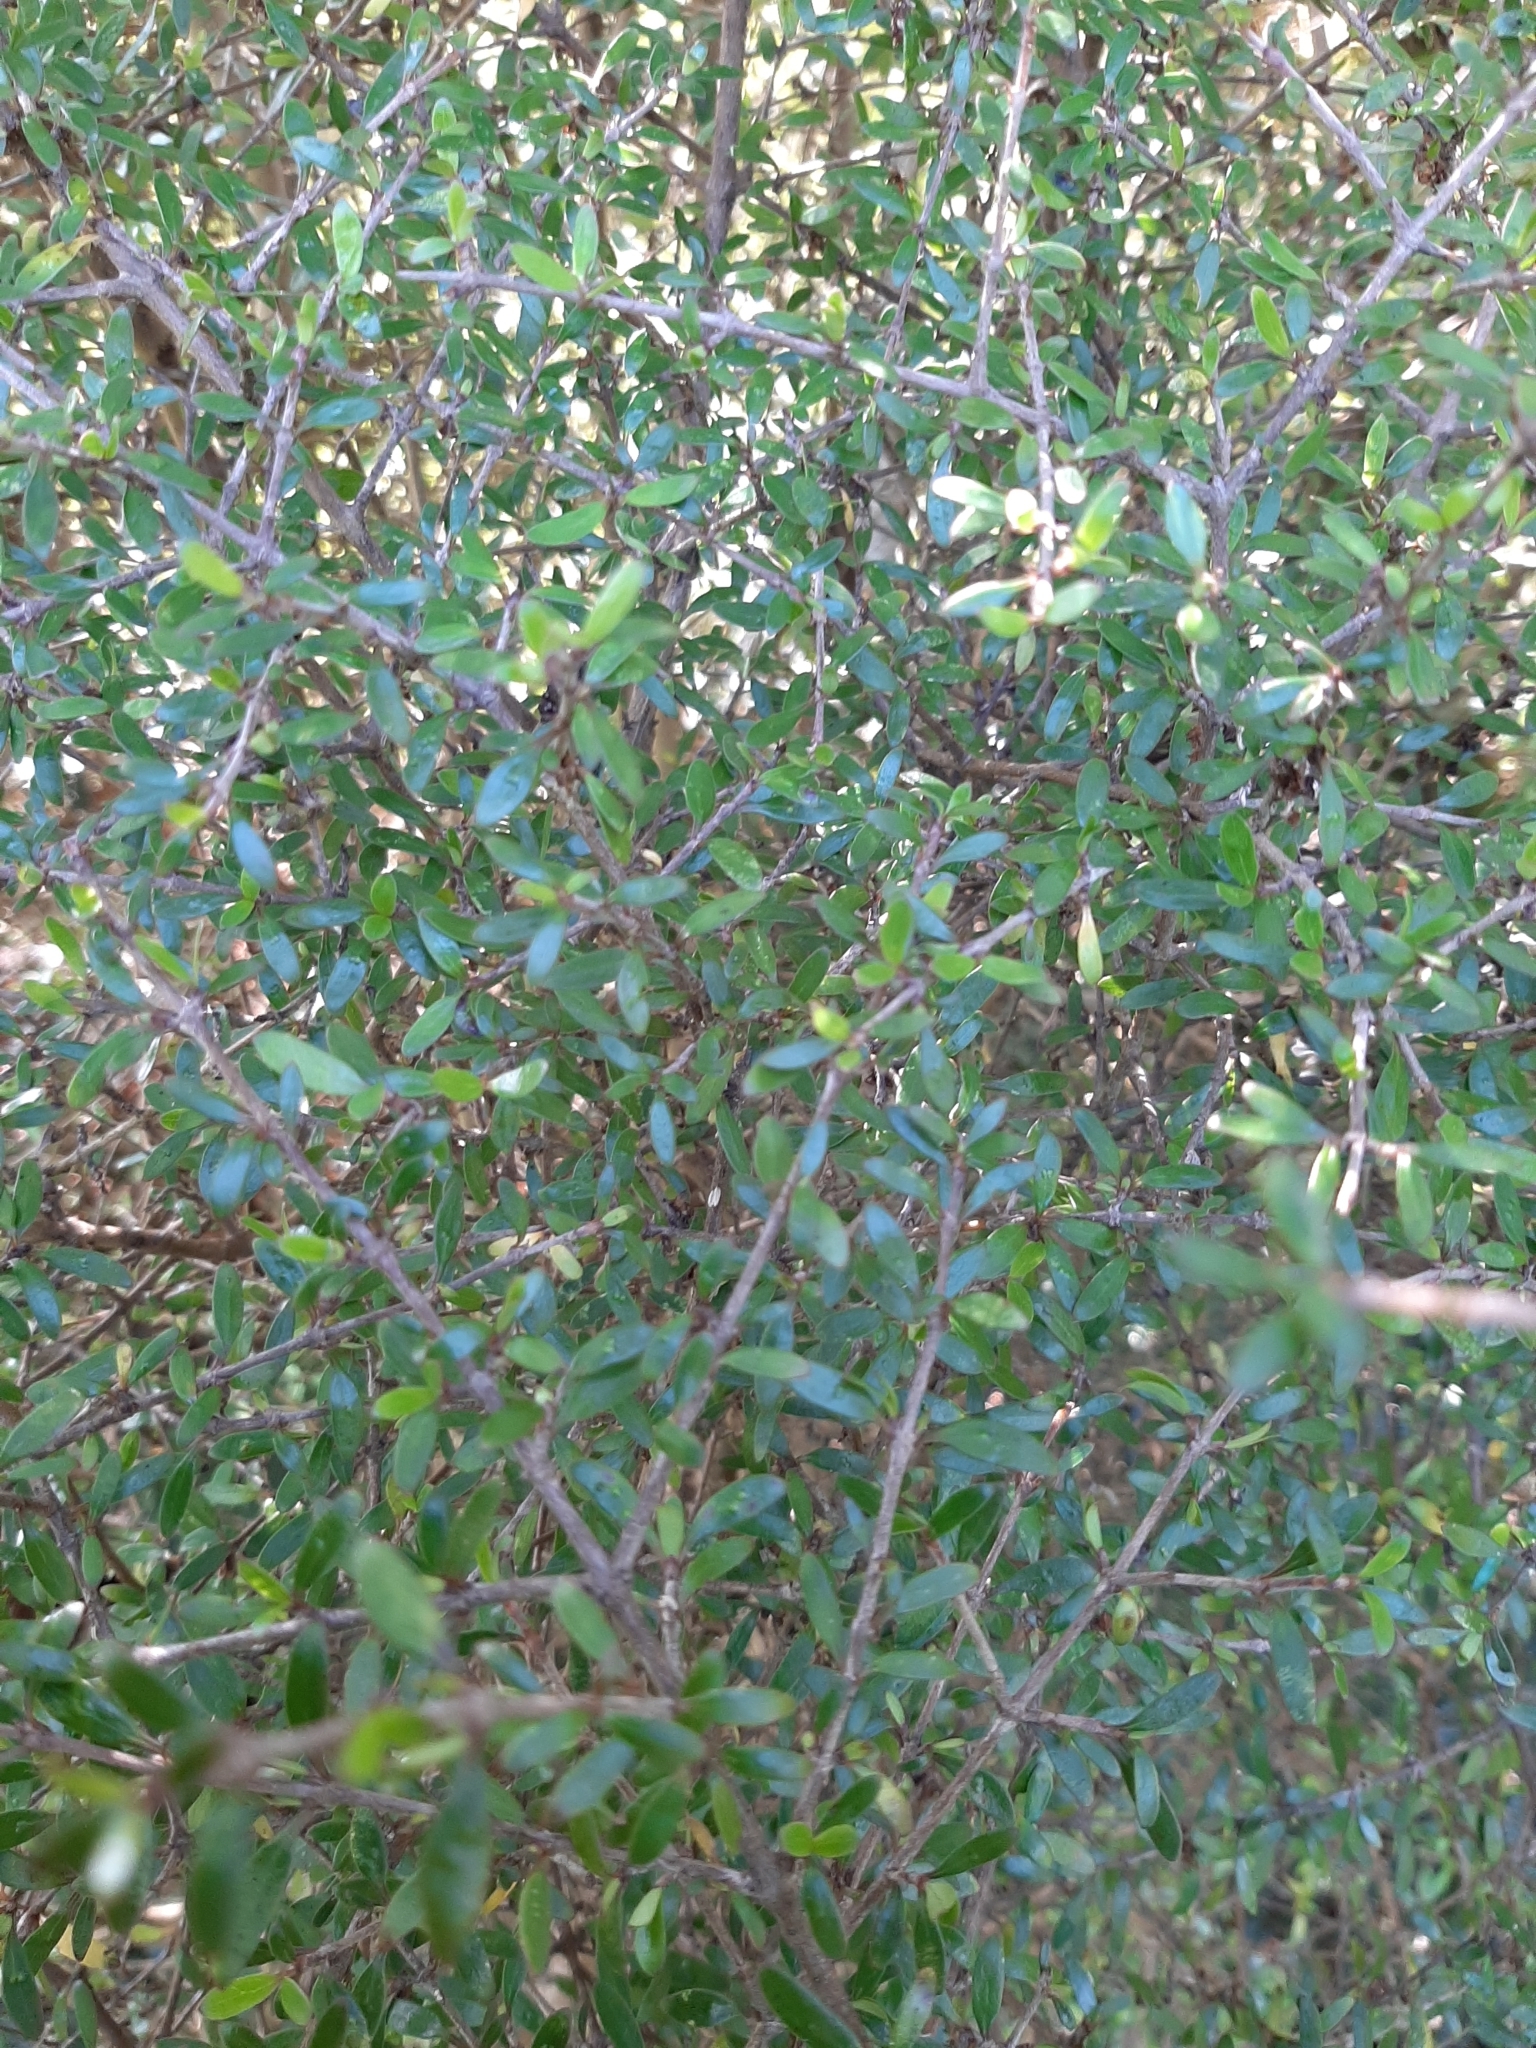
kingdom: Plantae
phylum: Tracheophyta
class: Magnoliopsida
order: Gentianales
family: Rubiaceae
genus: Coprosma
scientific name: Coprosma propinqua
